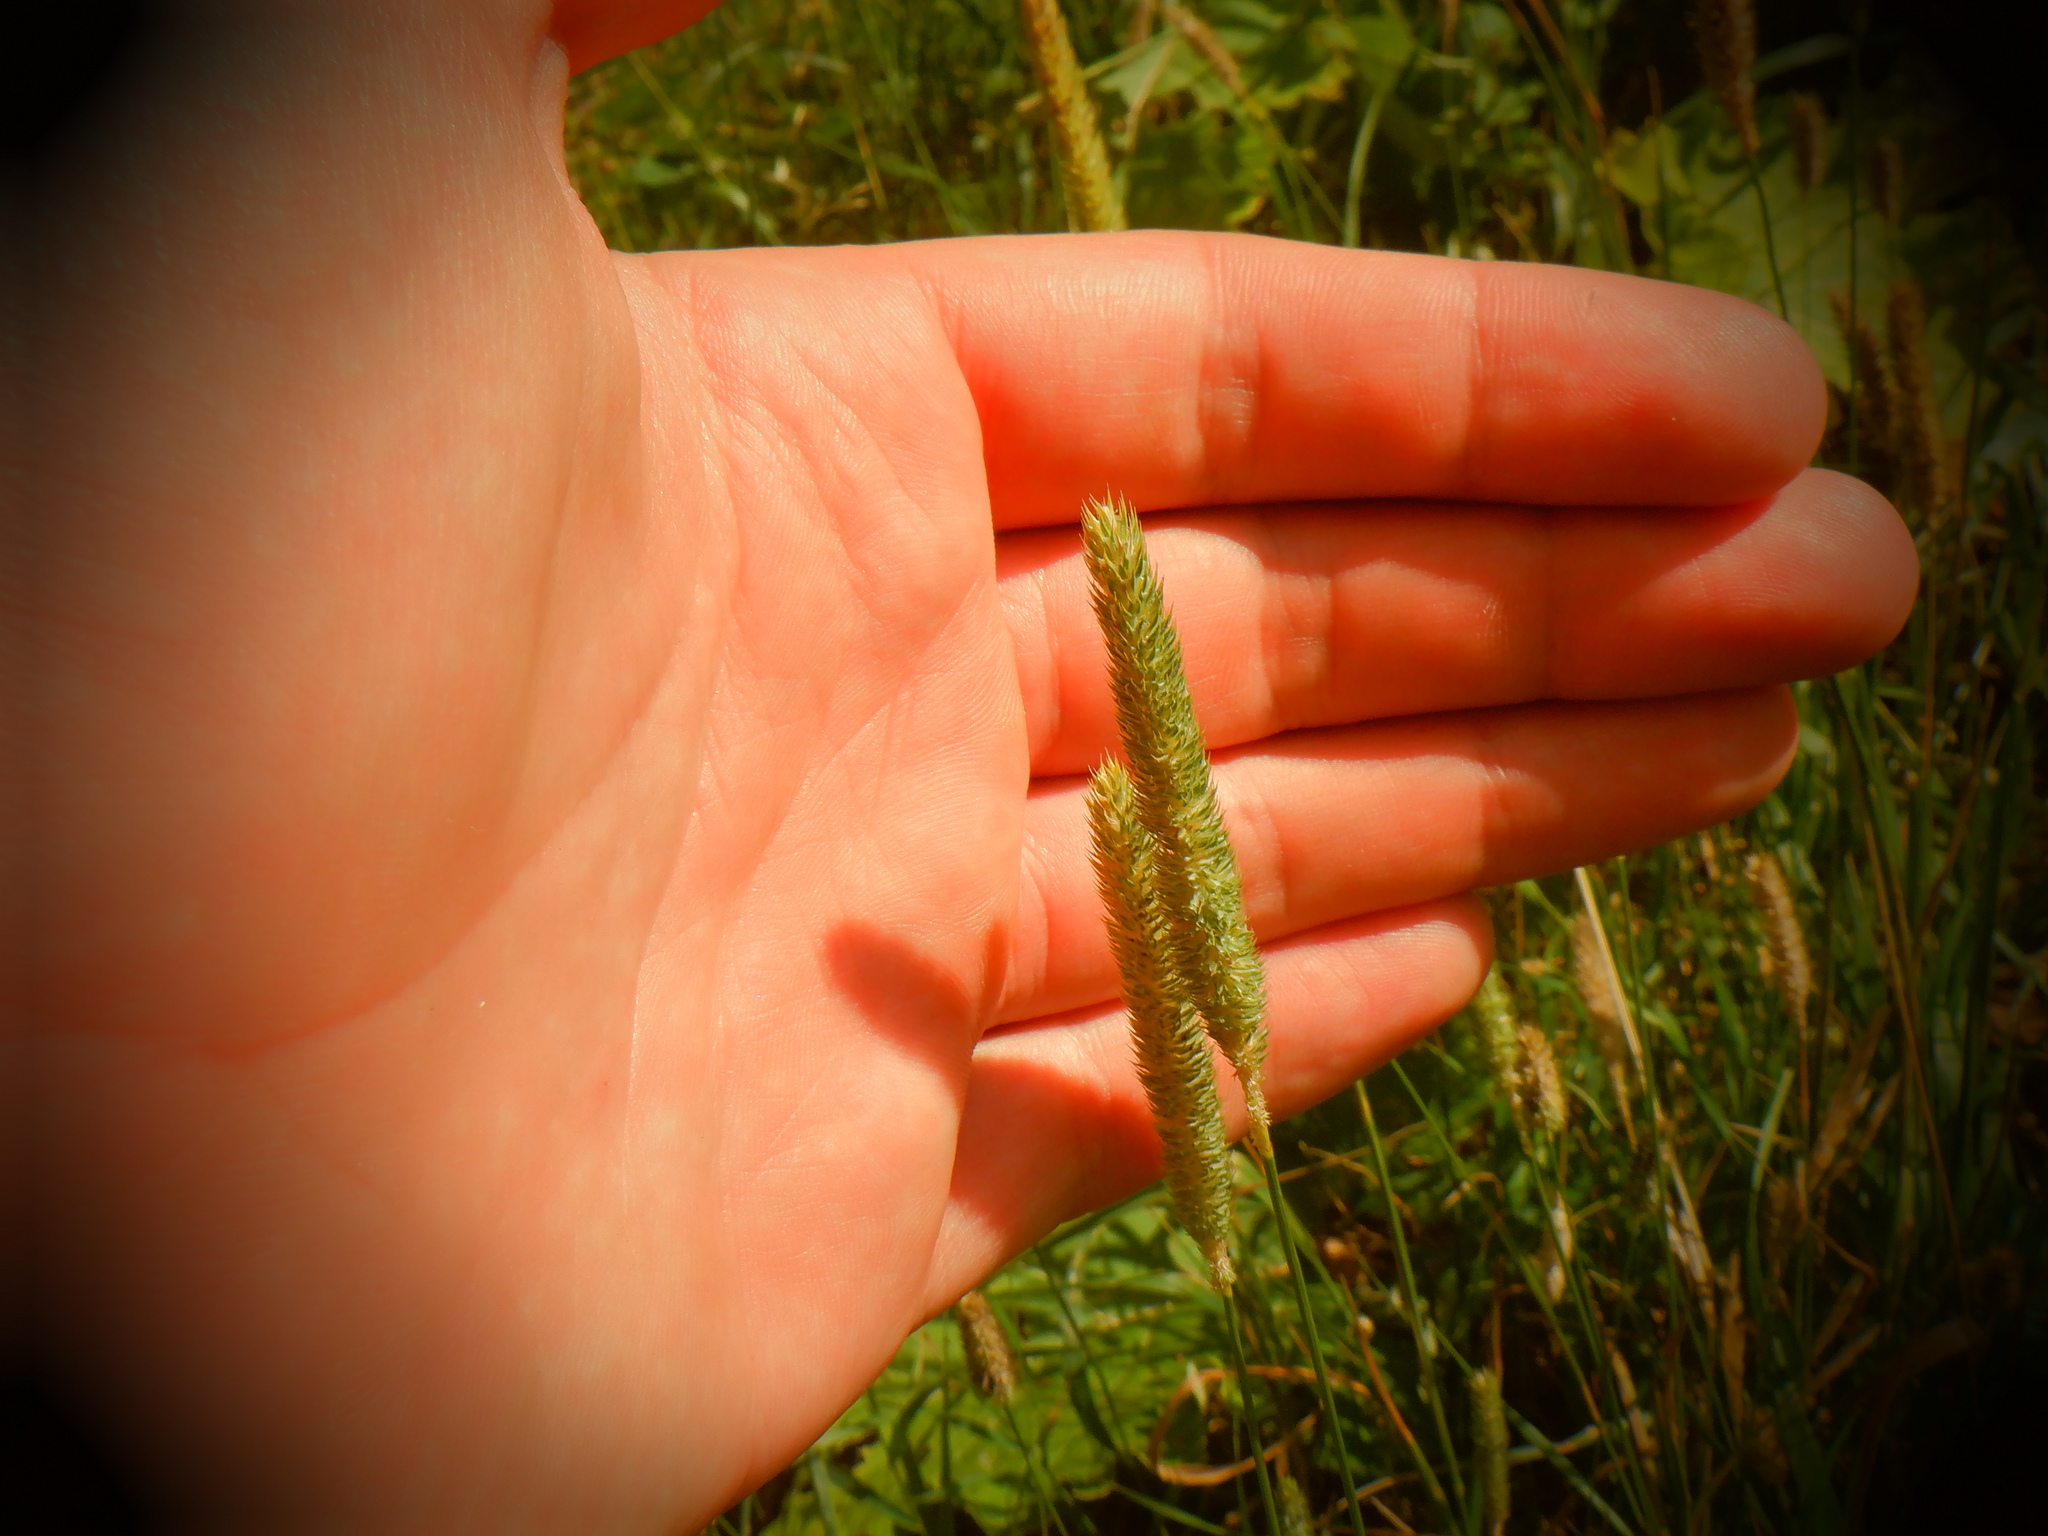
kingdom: Plantae
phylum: Tracheophyta
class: Liliopsida
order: Poales
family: Poaceae
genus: Phleum
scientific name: Phleum pratense
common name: Timothy grass
